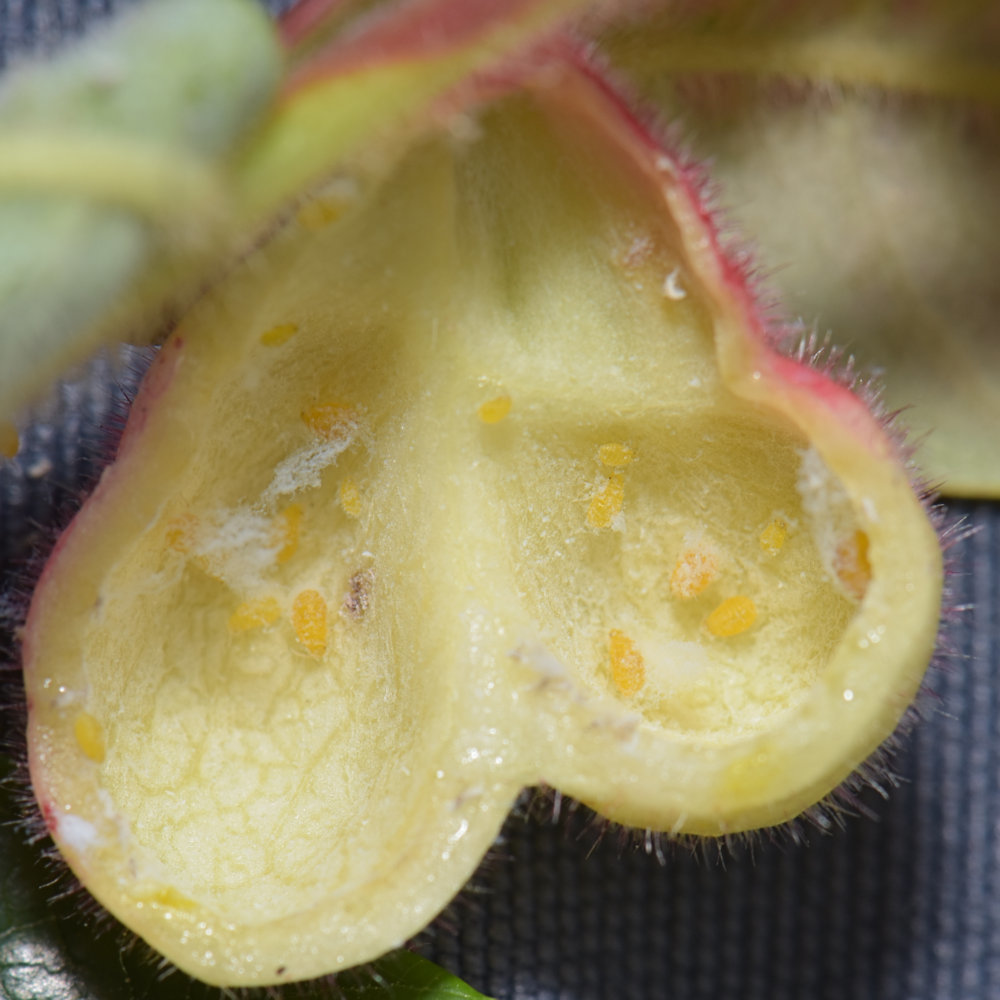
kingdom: Animalia
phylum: Arthropoda
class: Insecta
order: Hemiptera
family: Aphididae
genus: Melaphis
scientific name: Melaphis rhois
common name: Sumac gall aphid
